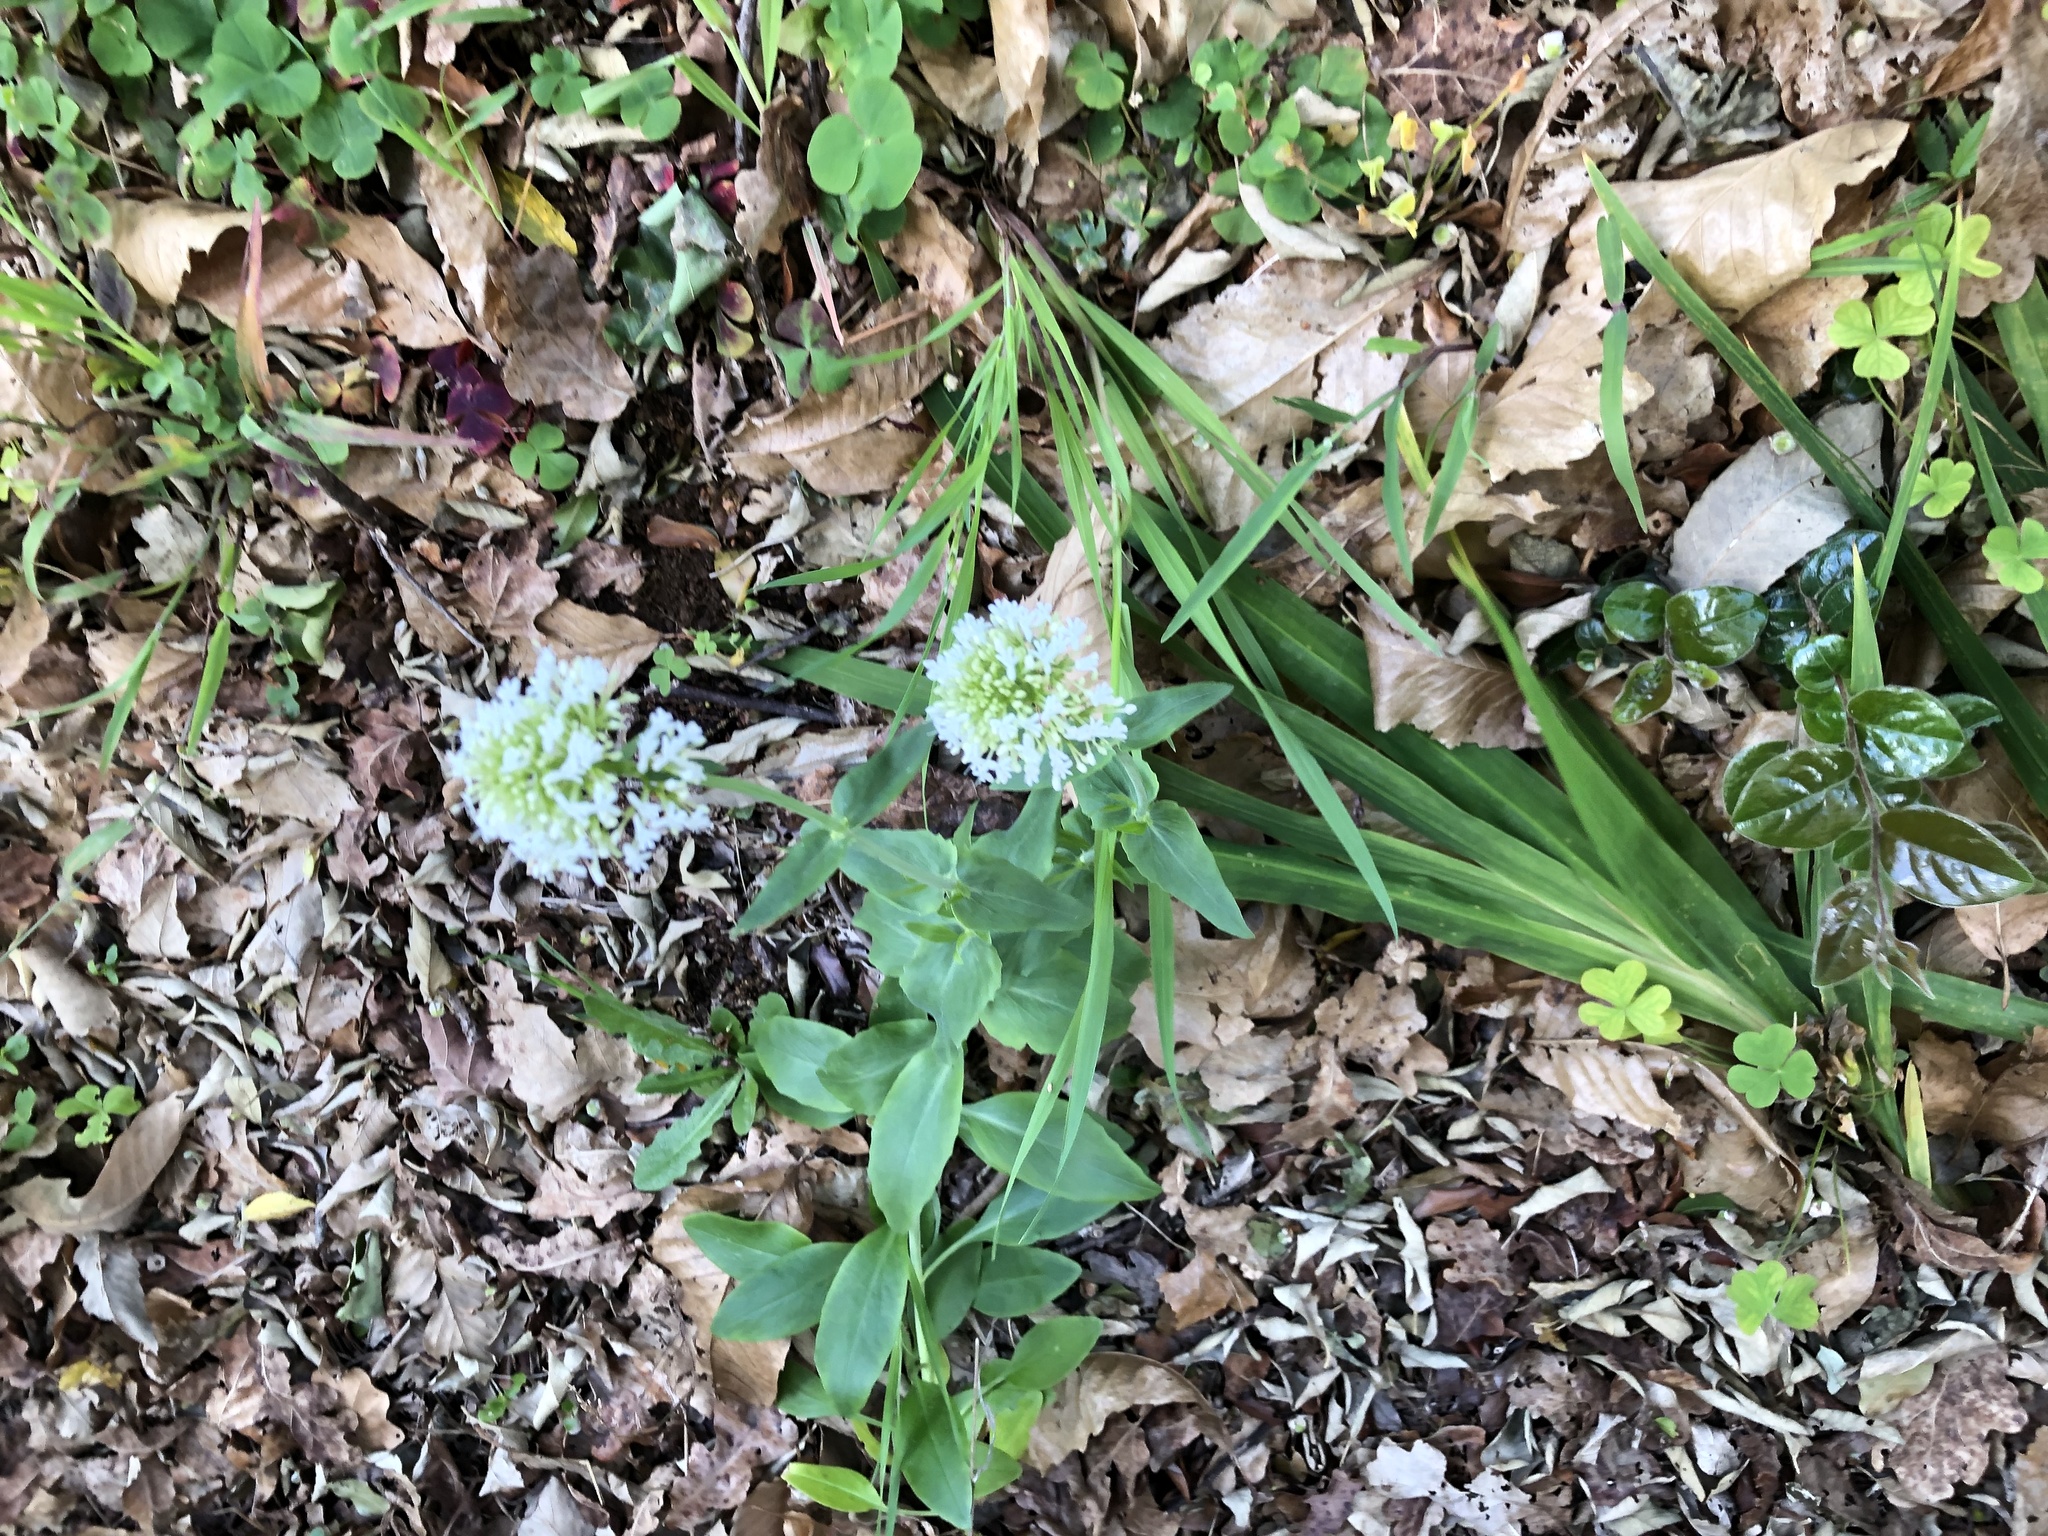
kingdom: Plantae
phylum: Tracheophyta
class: Magnoliopsida
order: Dipsacales
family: Caprifoliaceae
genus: Centranthus
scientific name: Centranthus ruber
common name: Red valerian
